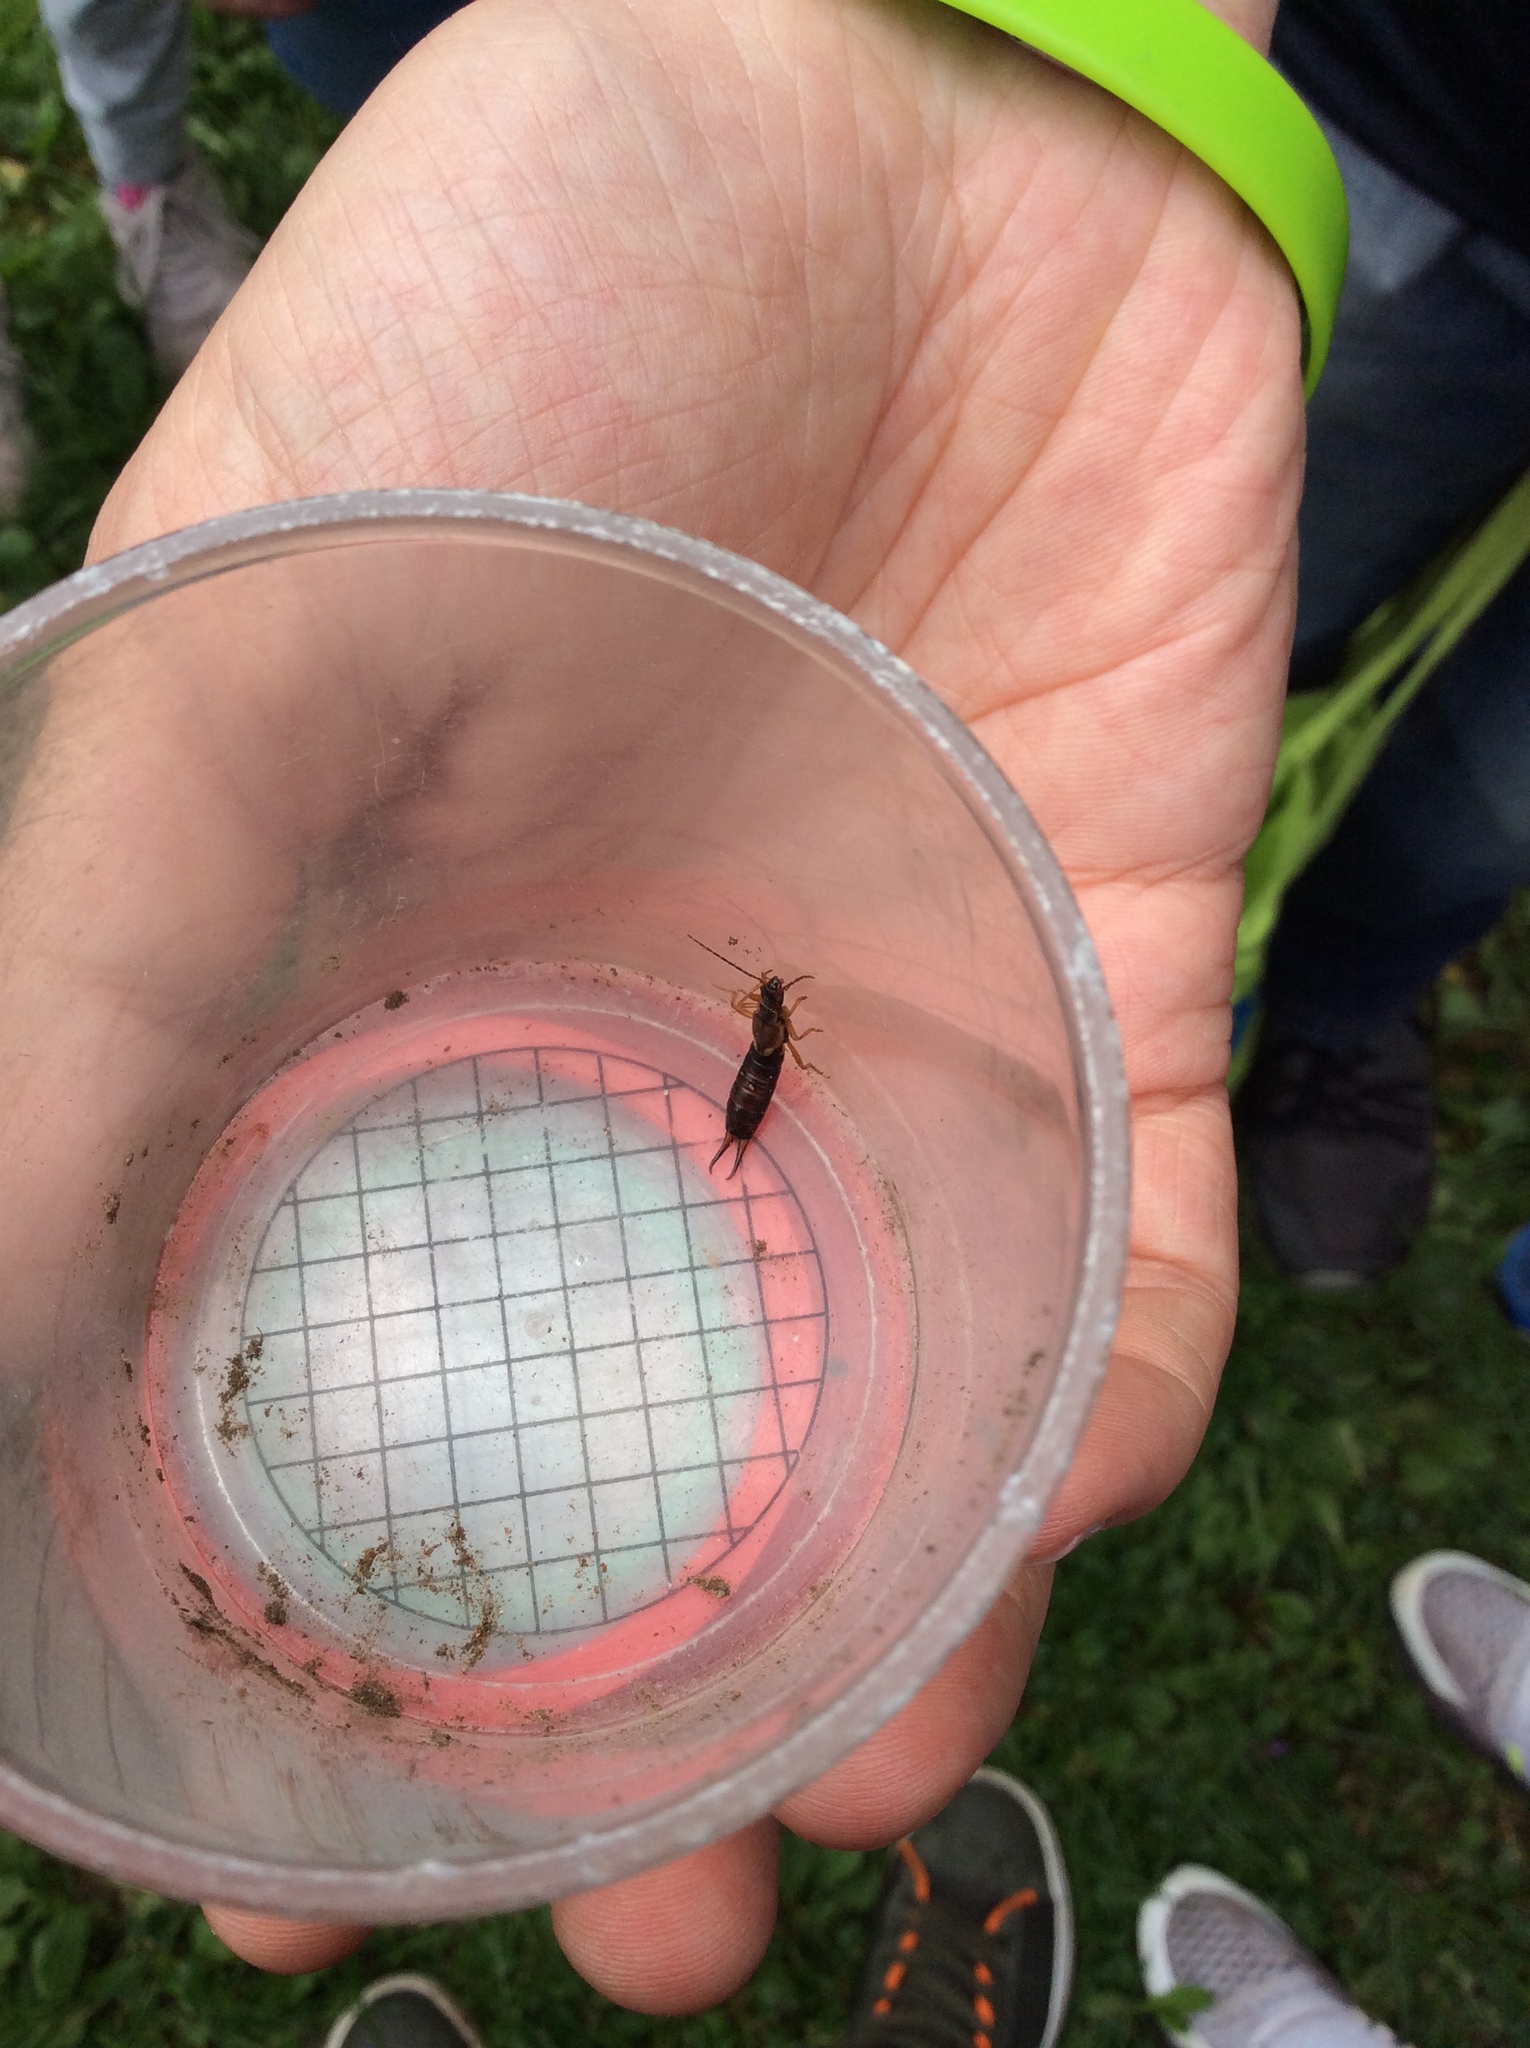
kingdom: Animalia
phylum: Arthropoda
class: Insecta
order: Dermaptera
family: Forficulidae
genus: Forficula
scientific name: Forficula
